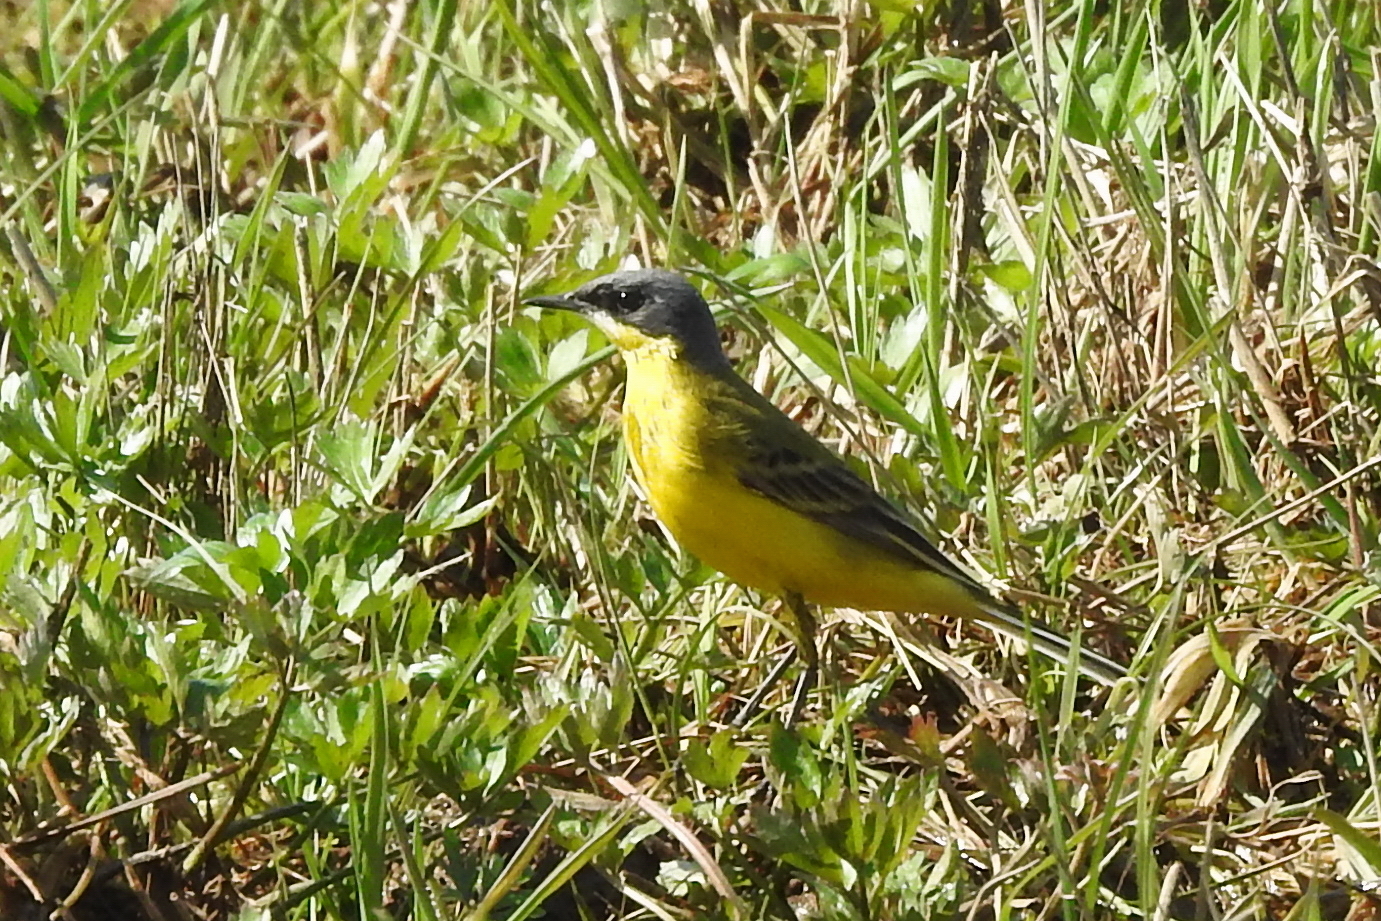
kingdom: Animalia
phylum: Chordata
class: Aves
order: Passeriformes
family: Motacillidae
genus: Motacilla
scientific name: Motacilla flava
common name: Western yellow wagtail
